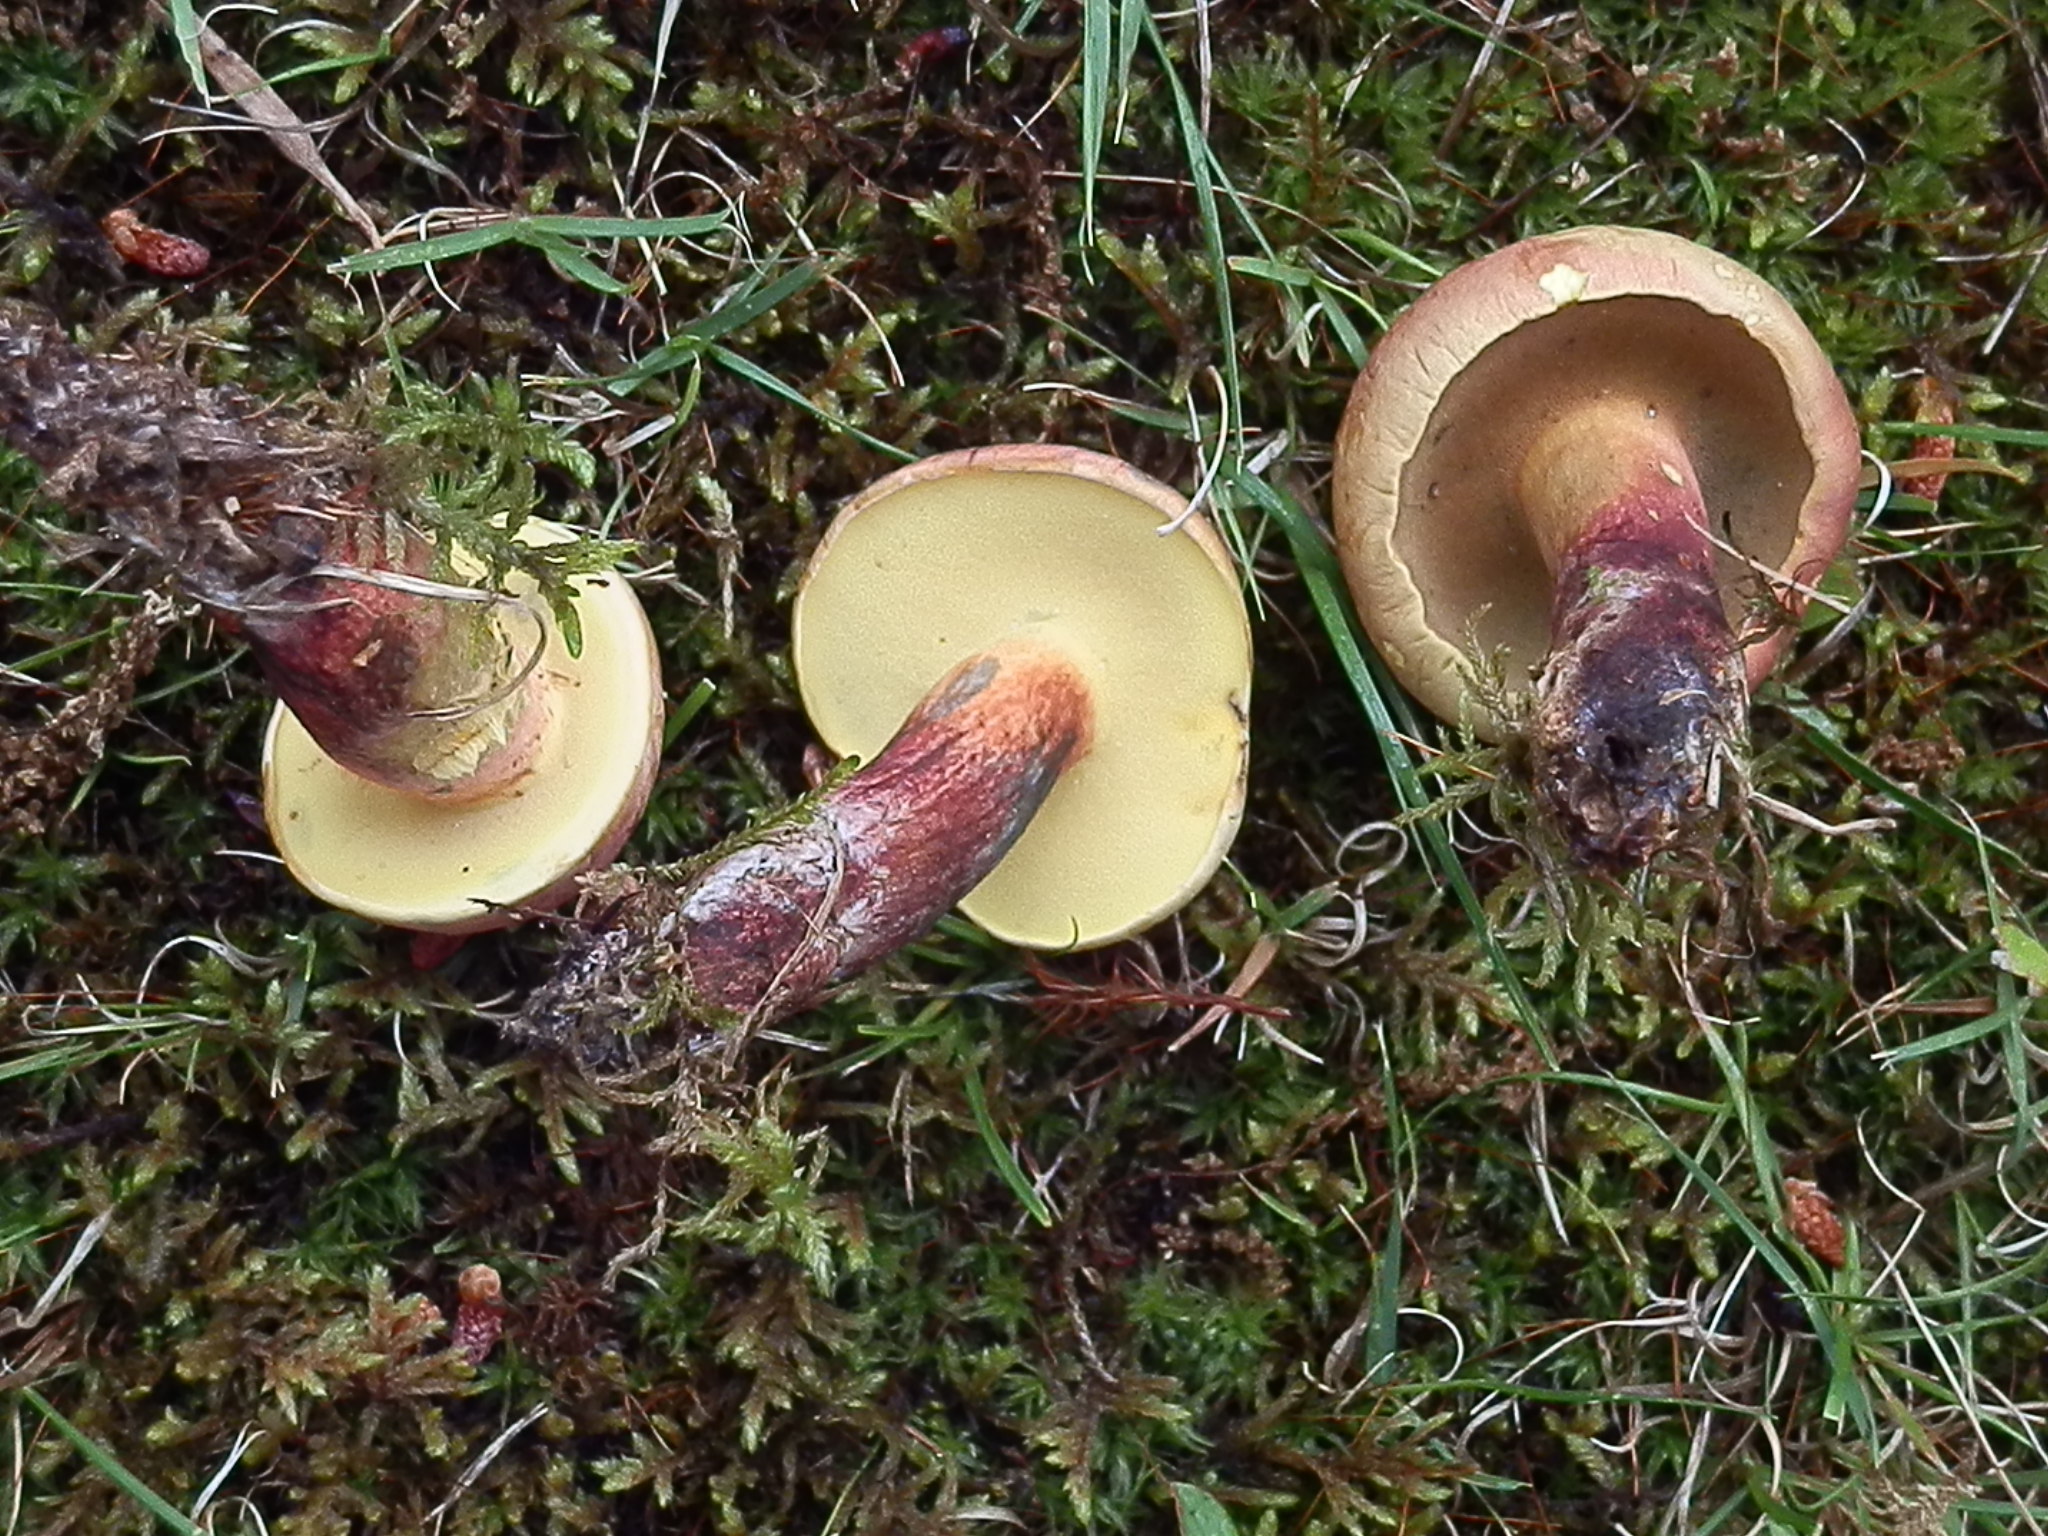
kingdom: Fungi
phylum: Basidiomycota
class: Agaricomycetes
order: Boletales
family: Boletaceae
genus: Baorangia
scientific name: Baorangia bicolor
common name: Two-colored bolete
